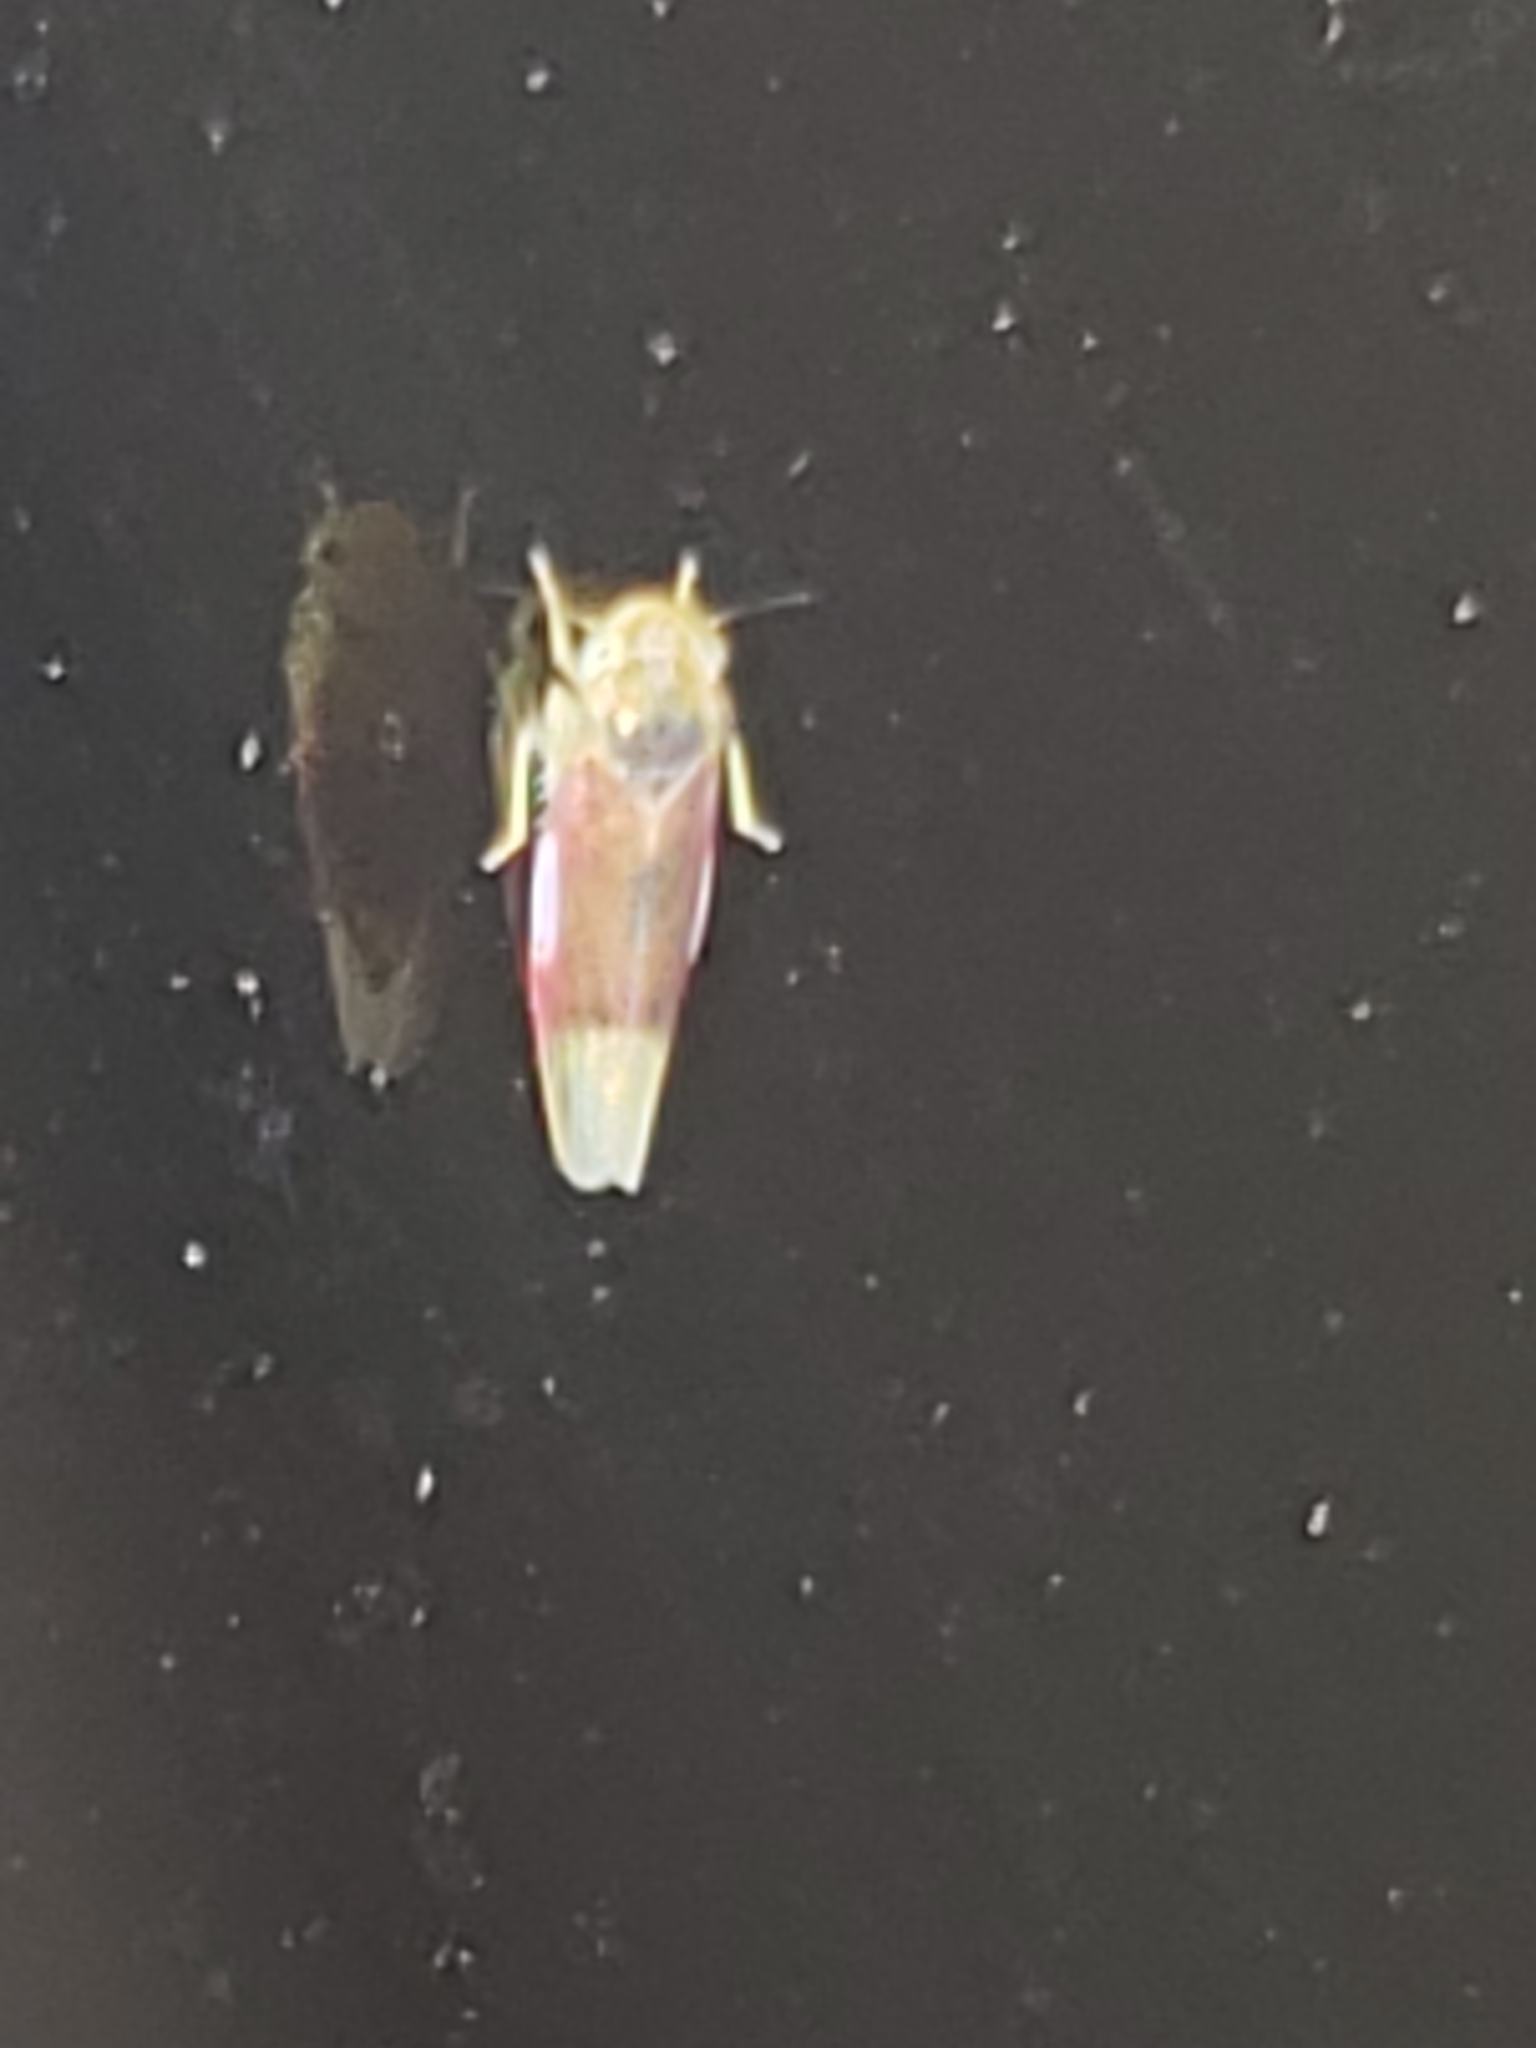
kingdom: Animalia
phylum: Arthropoda
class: Insecta
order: Hemiptera
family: Cicadellidae
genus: Erythridula
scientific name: Erythridula crevecoeuri
